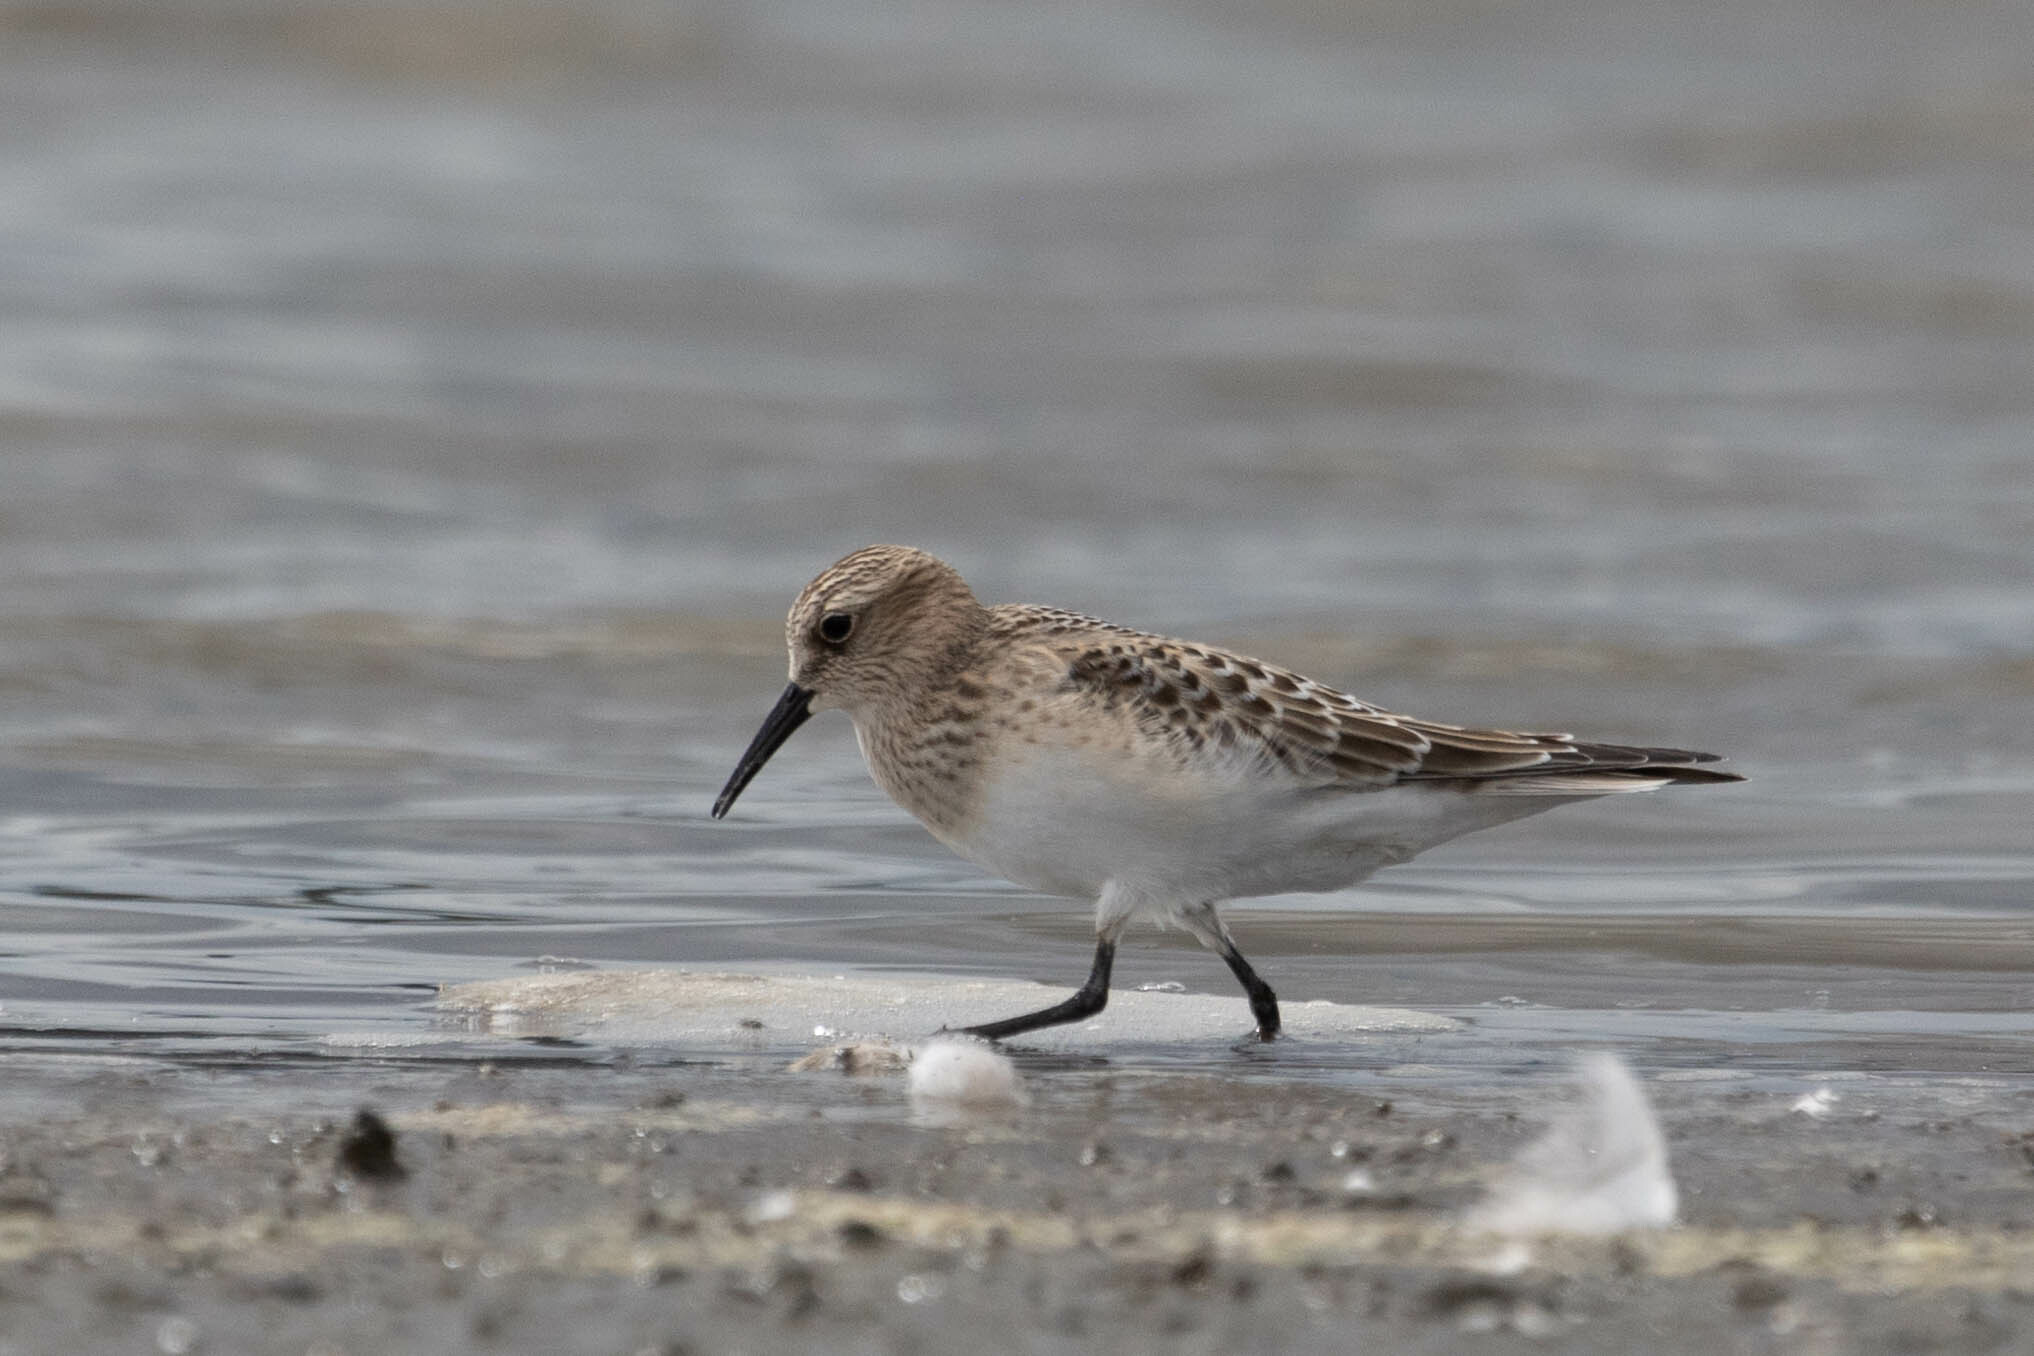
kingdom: Animalia
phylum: Chordata
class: Aves
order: Charadriiformes
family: Scolopacidae
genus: Calidris
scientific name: Calidris bairdii
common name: Baird's sandpiper
